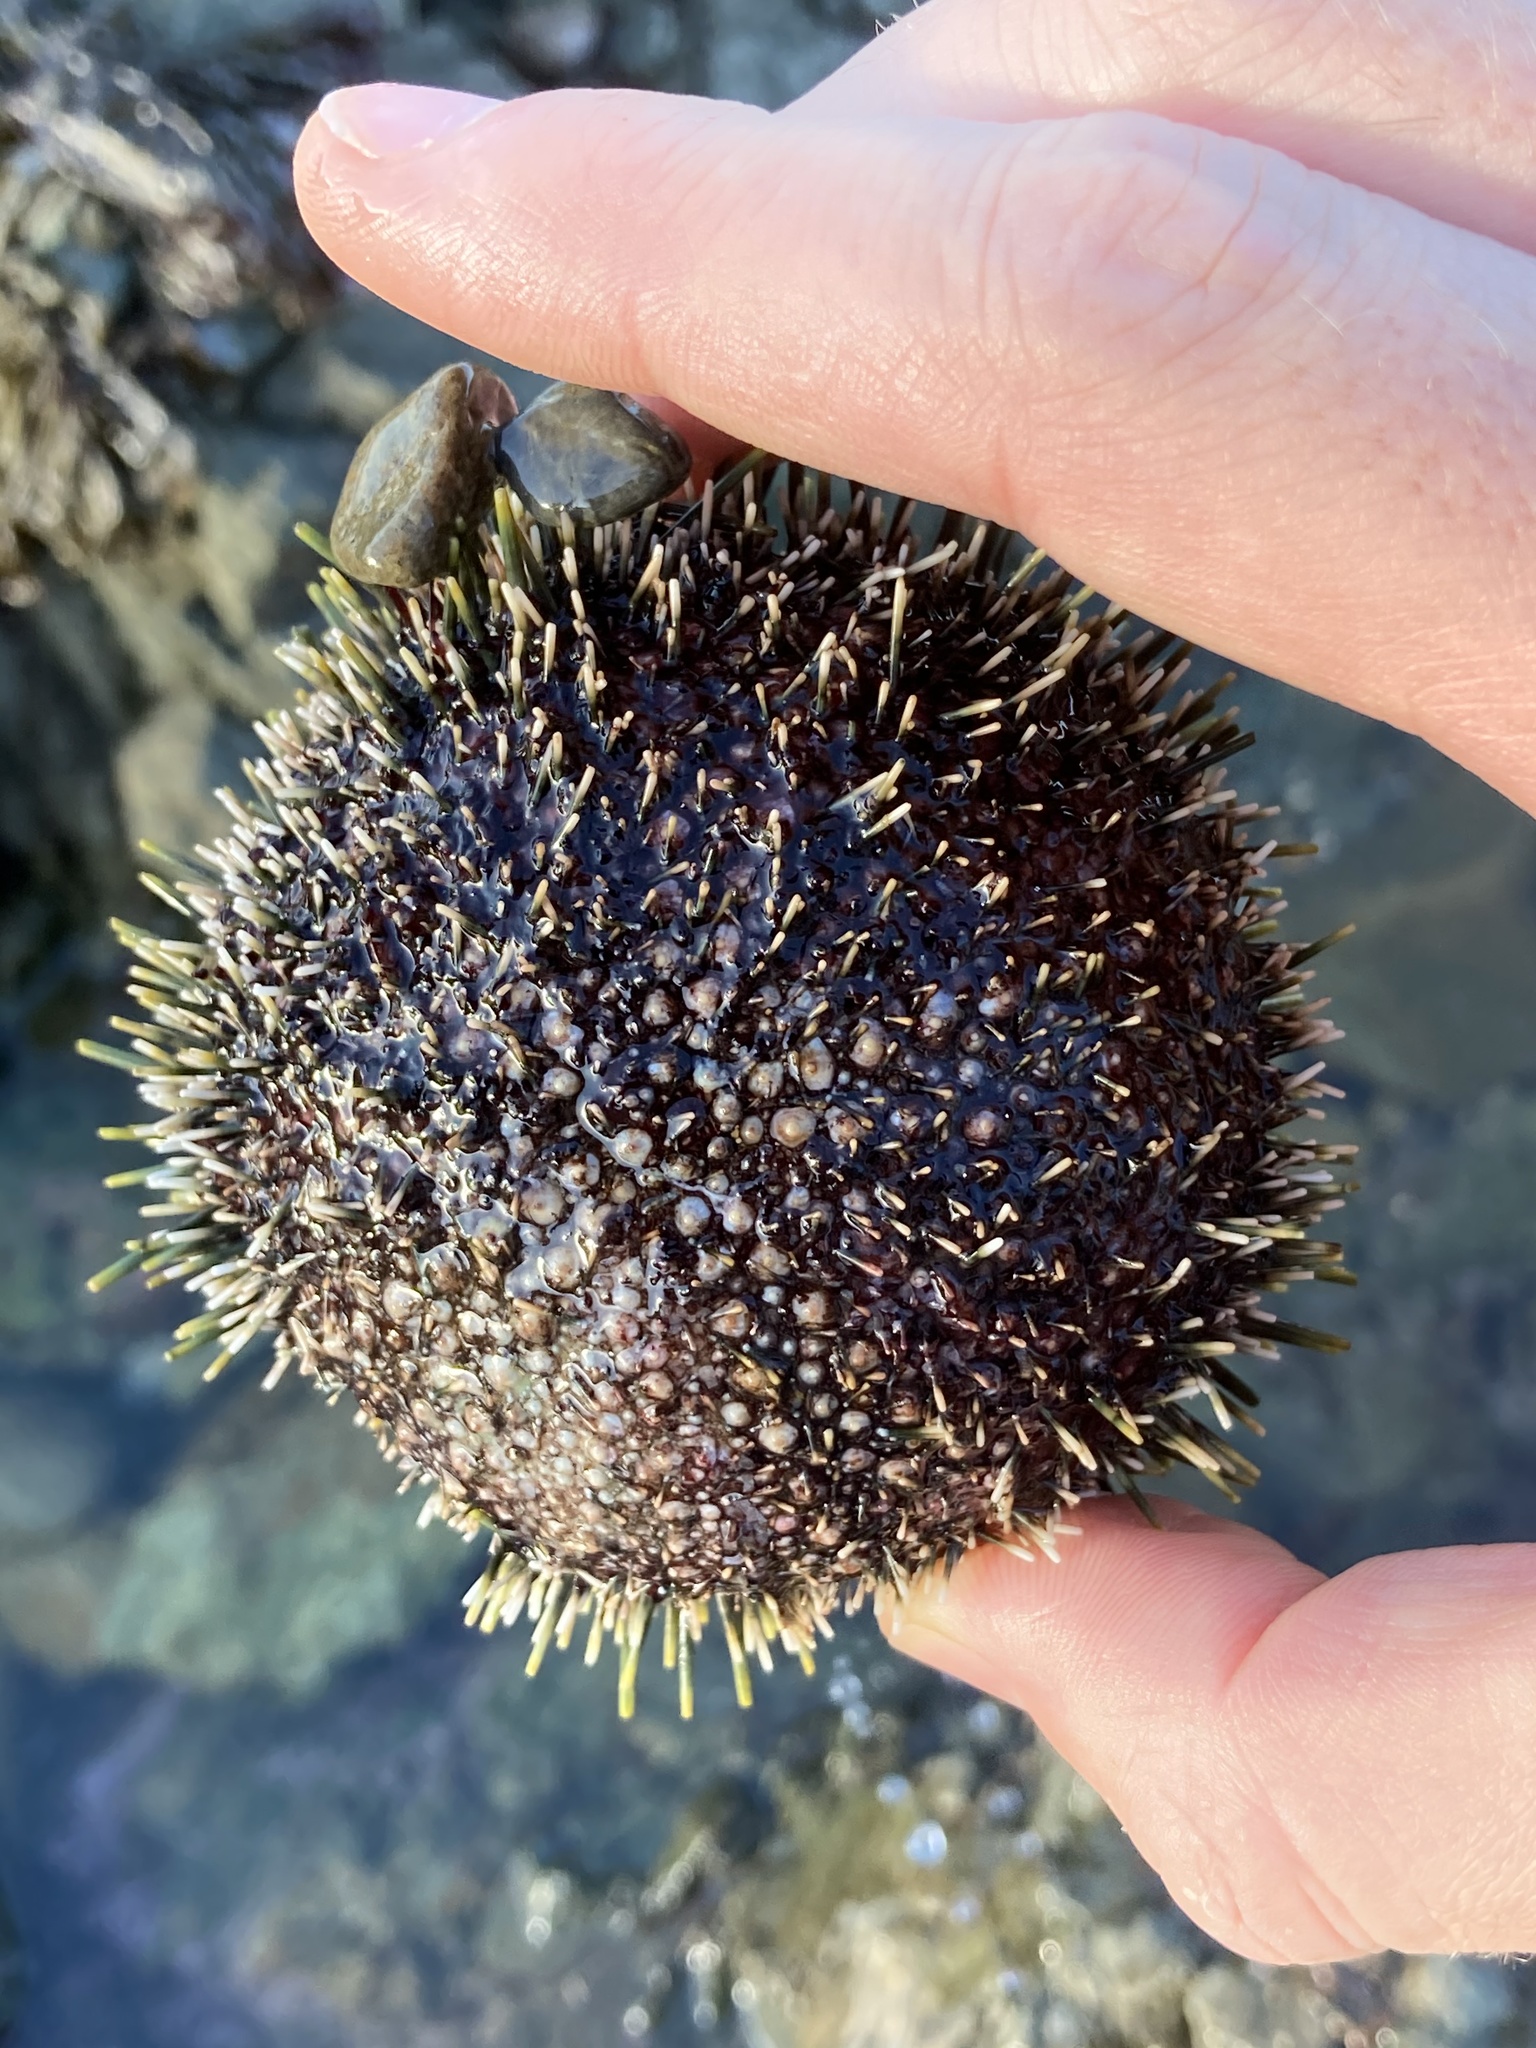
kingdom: Animalia
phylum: Echinodermata
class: Echinoidea
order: Camarodonta
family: Echinometridae
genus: Evechinus
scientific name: Evechinus chloroticus
